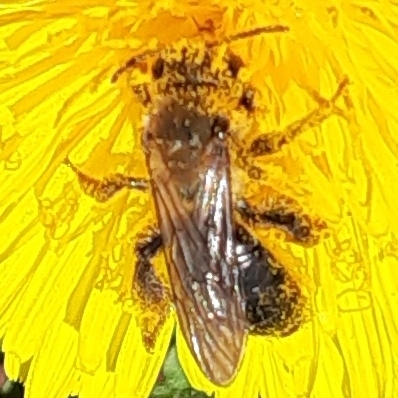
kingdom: Animalia
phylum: Arthropoda
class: Insecta
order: Hymenoptera
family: Andrenidae
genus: Andrena
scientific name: Andrena
